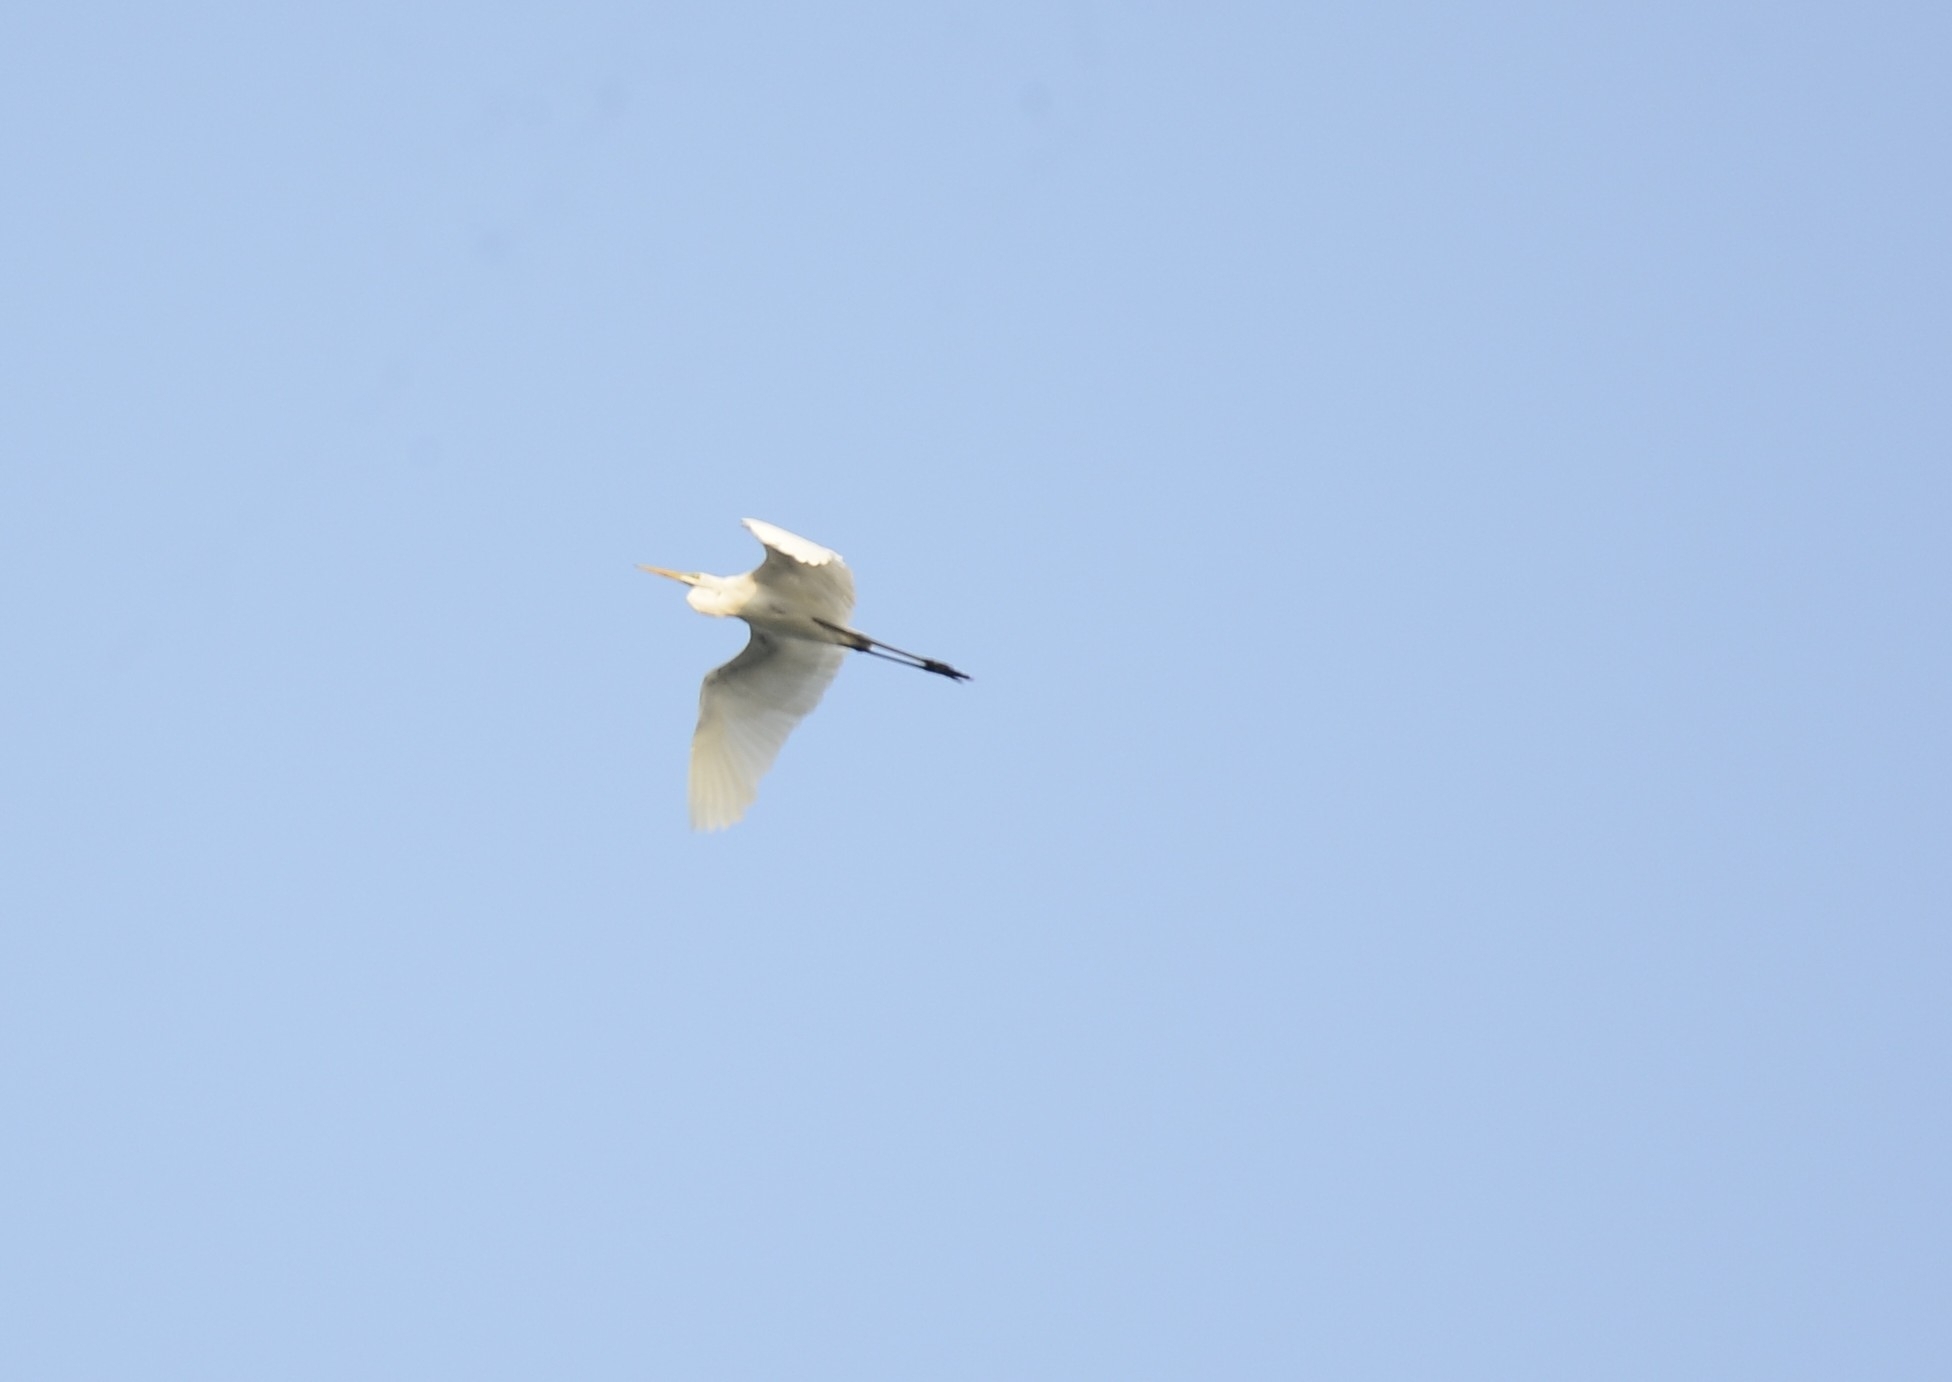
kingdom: Animalia
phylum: Chordata
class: Aves
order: Pelecaniformes
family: Ardeidae
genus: Ardea
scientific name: Ardea alba
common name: Great egret
